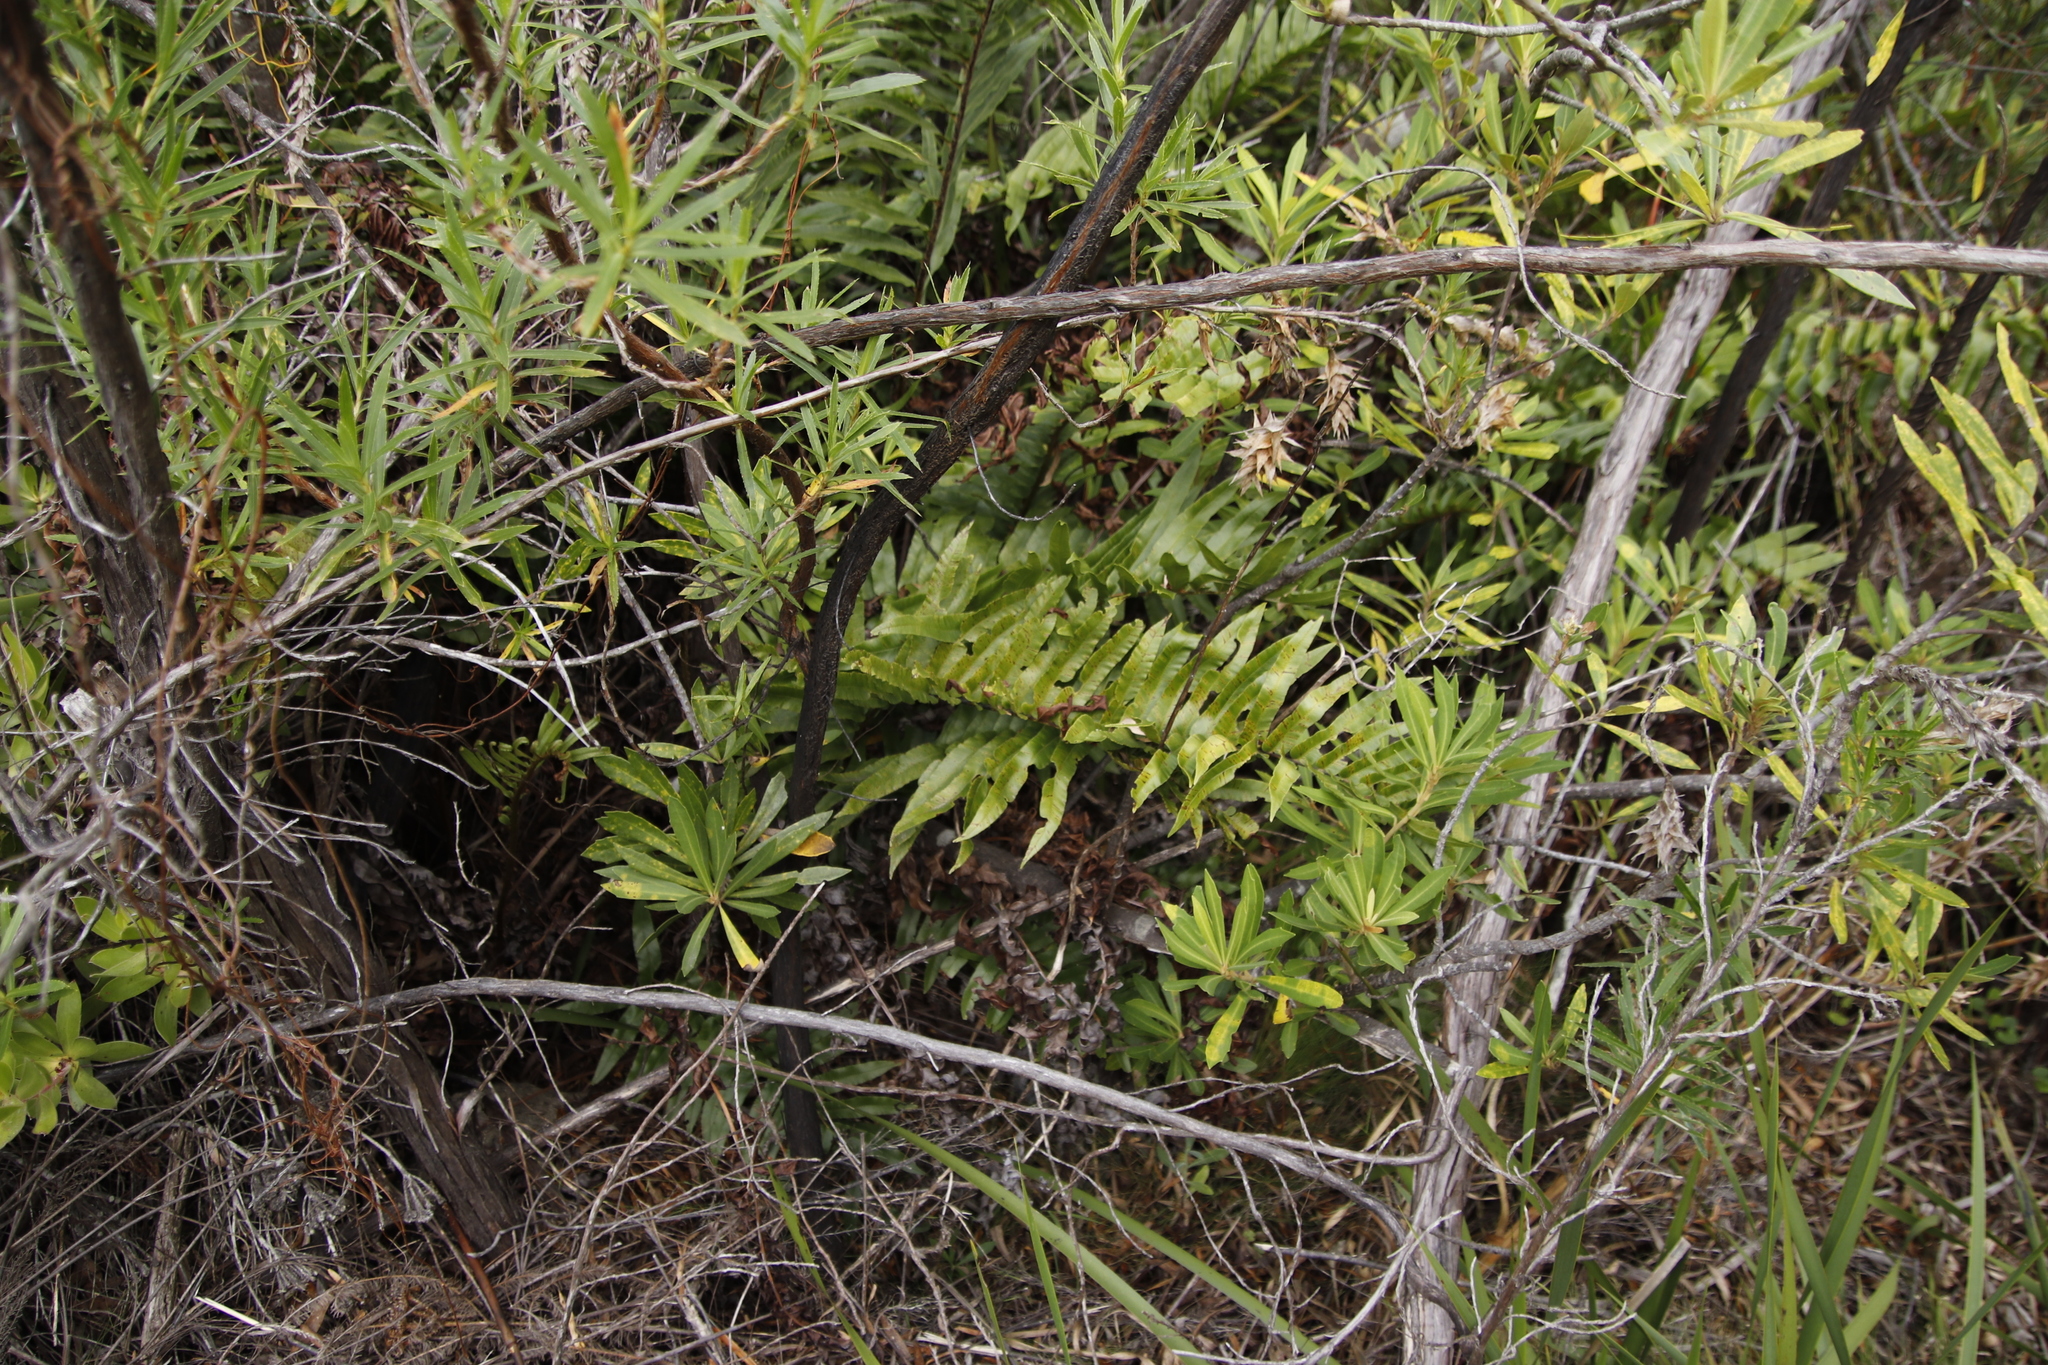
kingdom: Plantae
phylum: Tracheophyta
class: Magnoliopsida
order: Asterales
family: Asteraceae
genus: Brachylaena
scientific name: Brachylaena neriifolia
